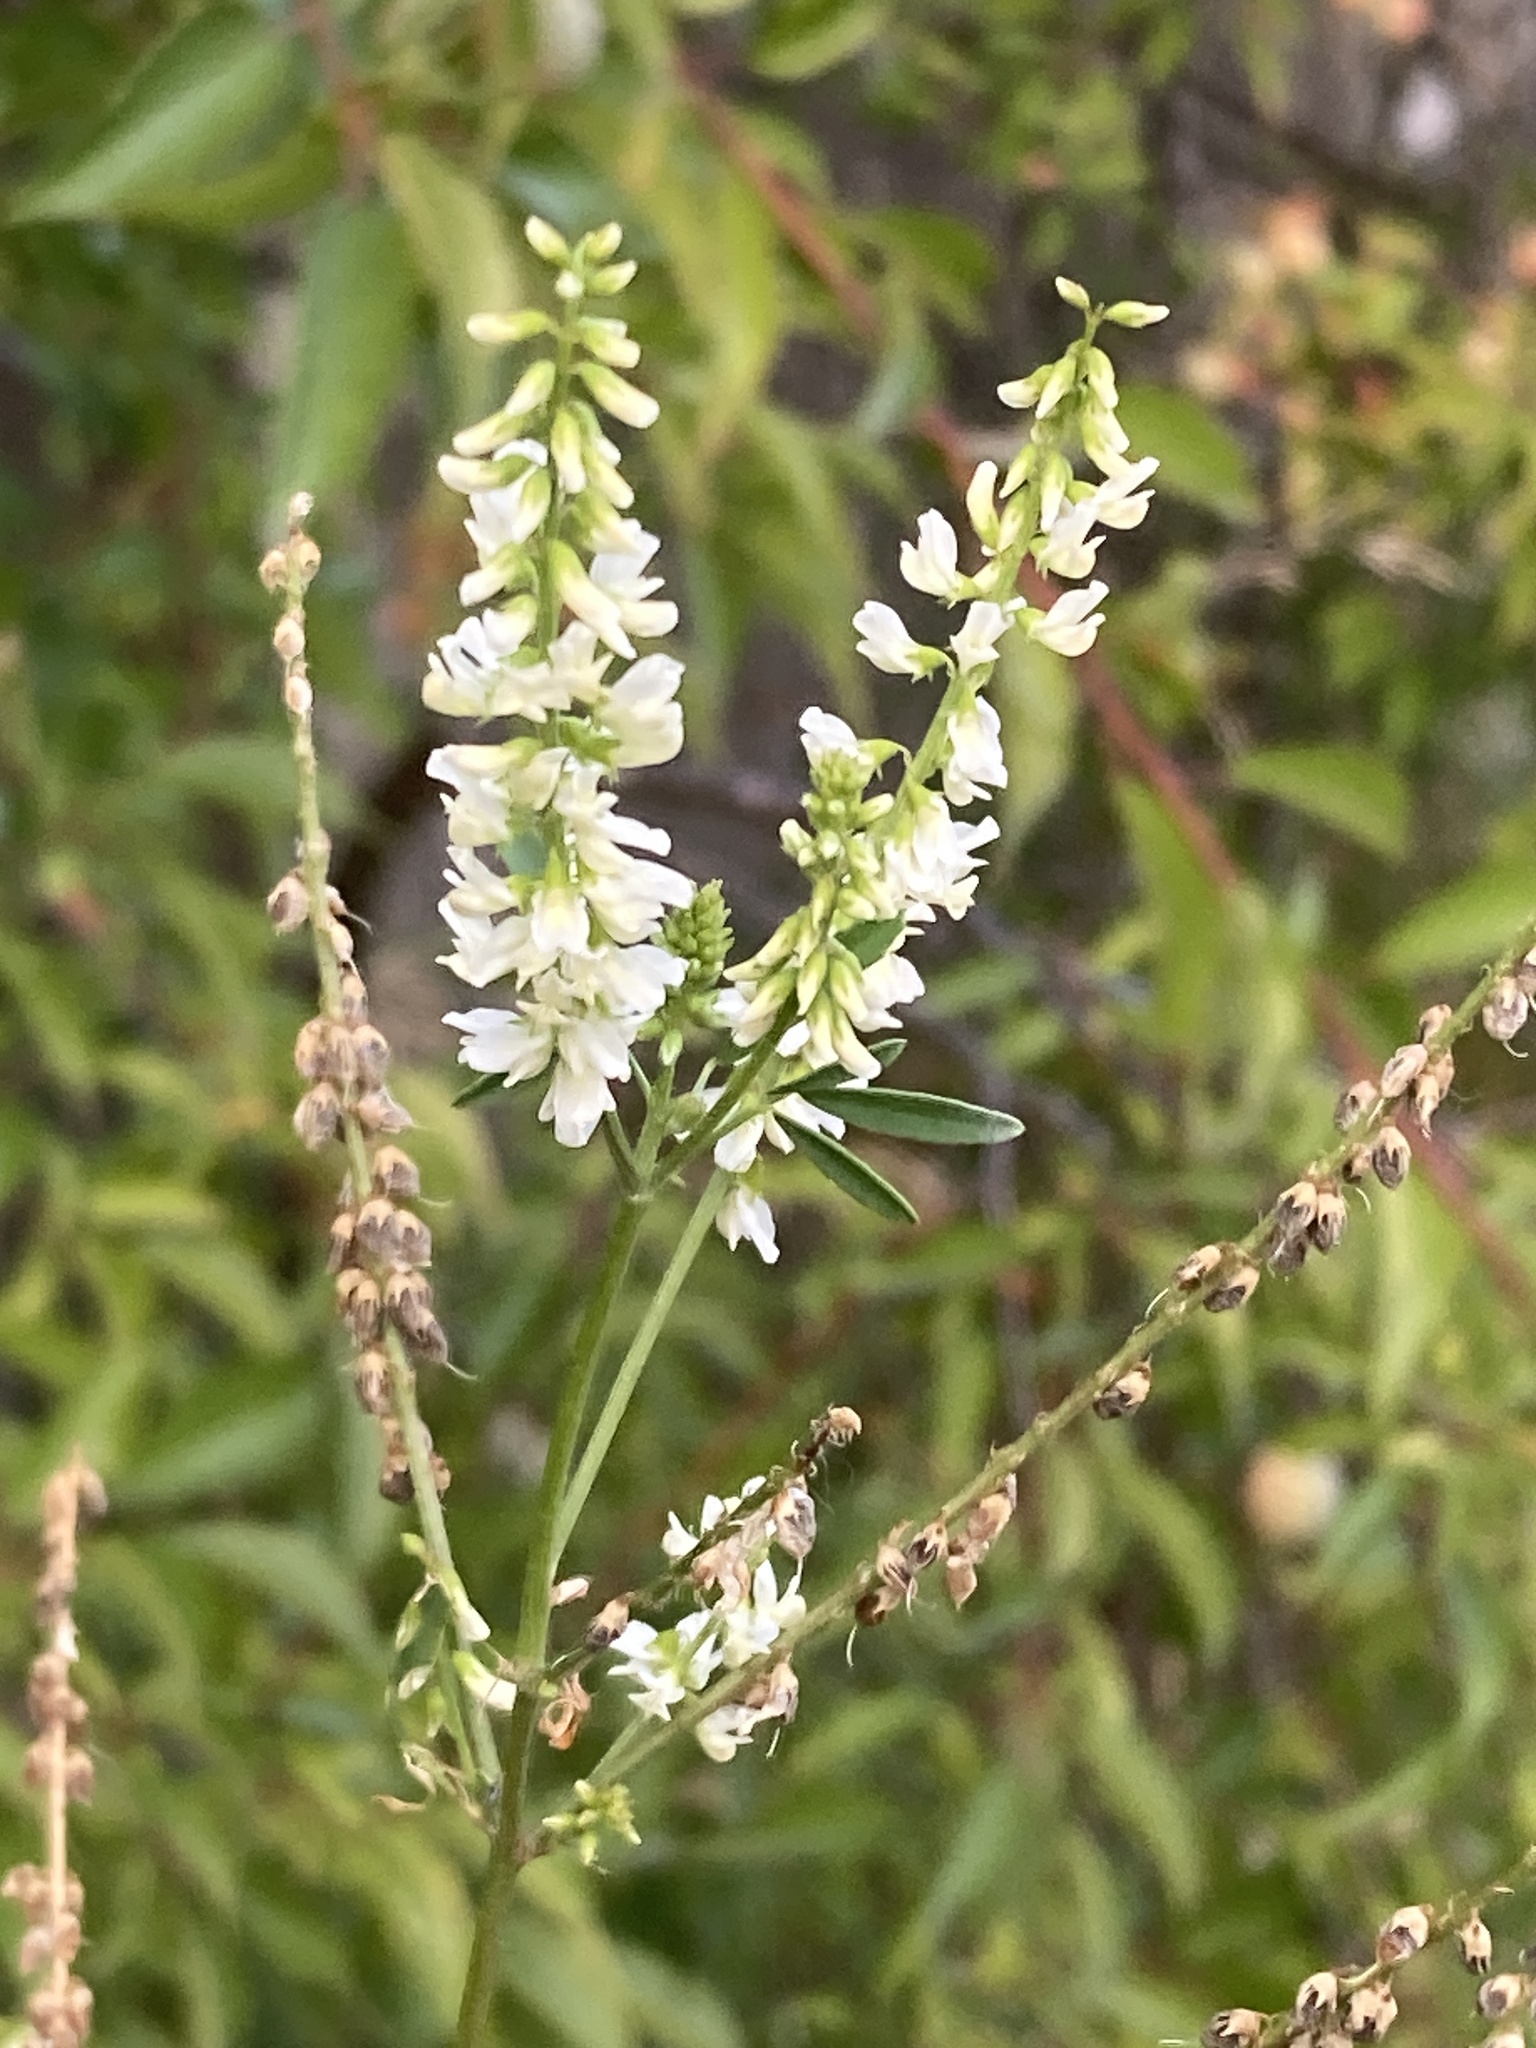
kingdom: Plantae
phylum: Tracheophyta
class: Magnoliopsida
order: Fabales
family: Fabaceae
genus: Melilotus
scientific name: Melilotus albus
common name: White melilot
